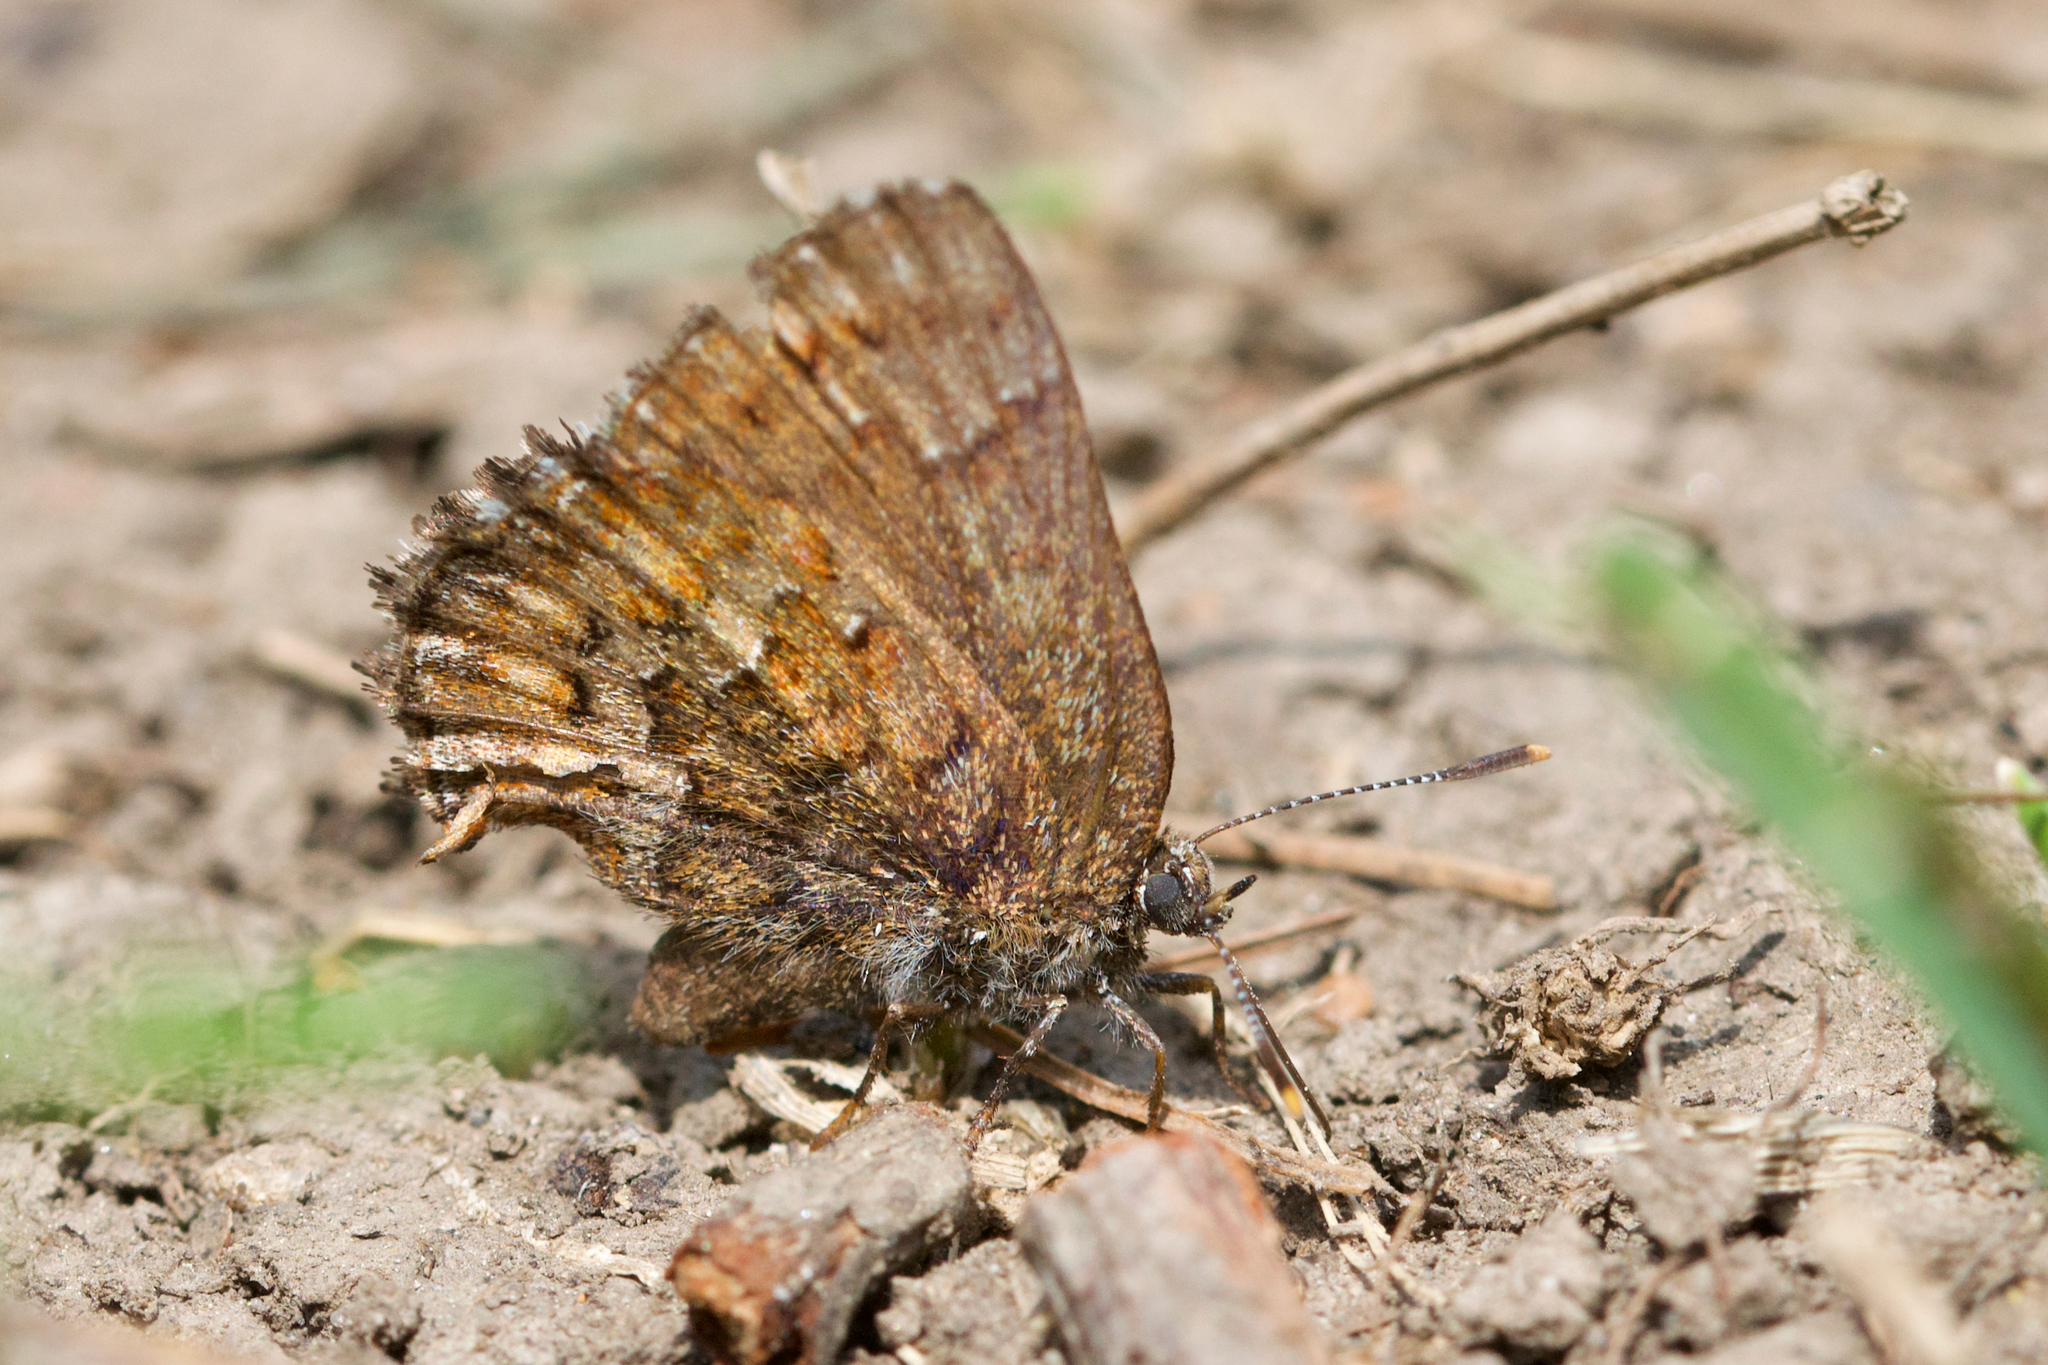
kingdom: Animalia
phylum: Arthropoda
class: Insecta
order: Lepidoptera
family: Lycaenidae
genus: Incisalia
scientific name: Incisalia niphon
